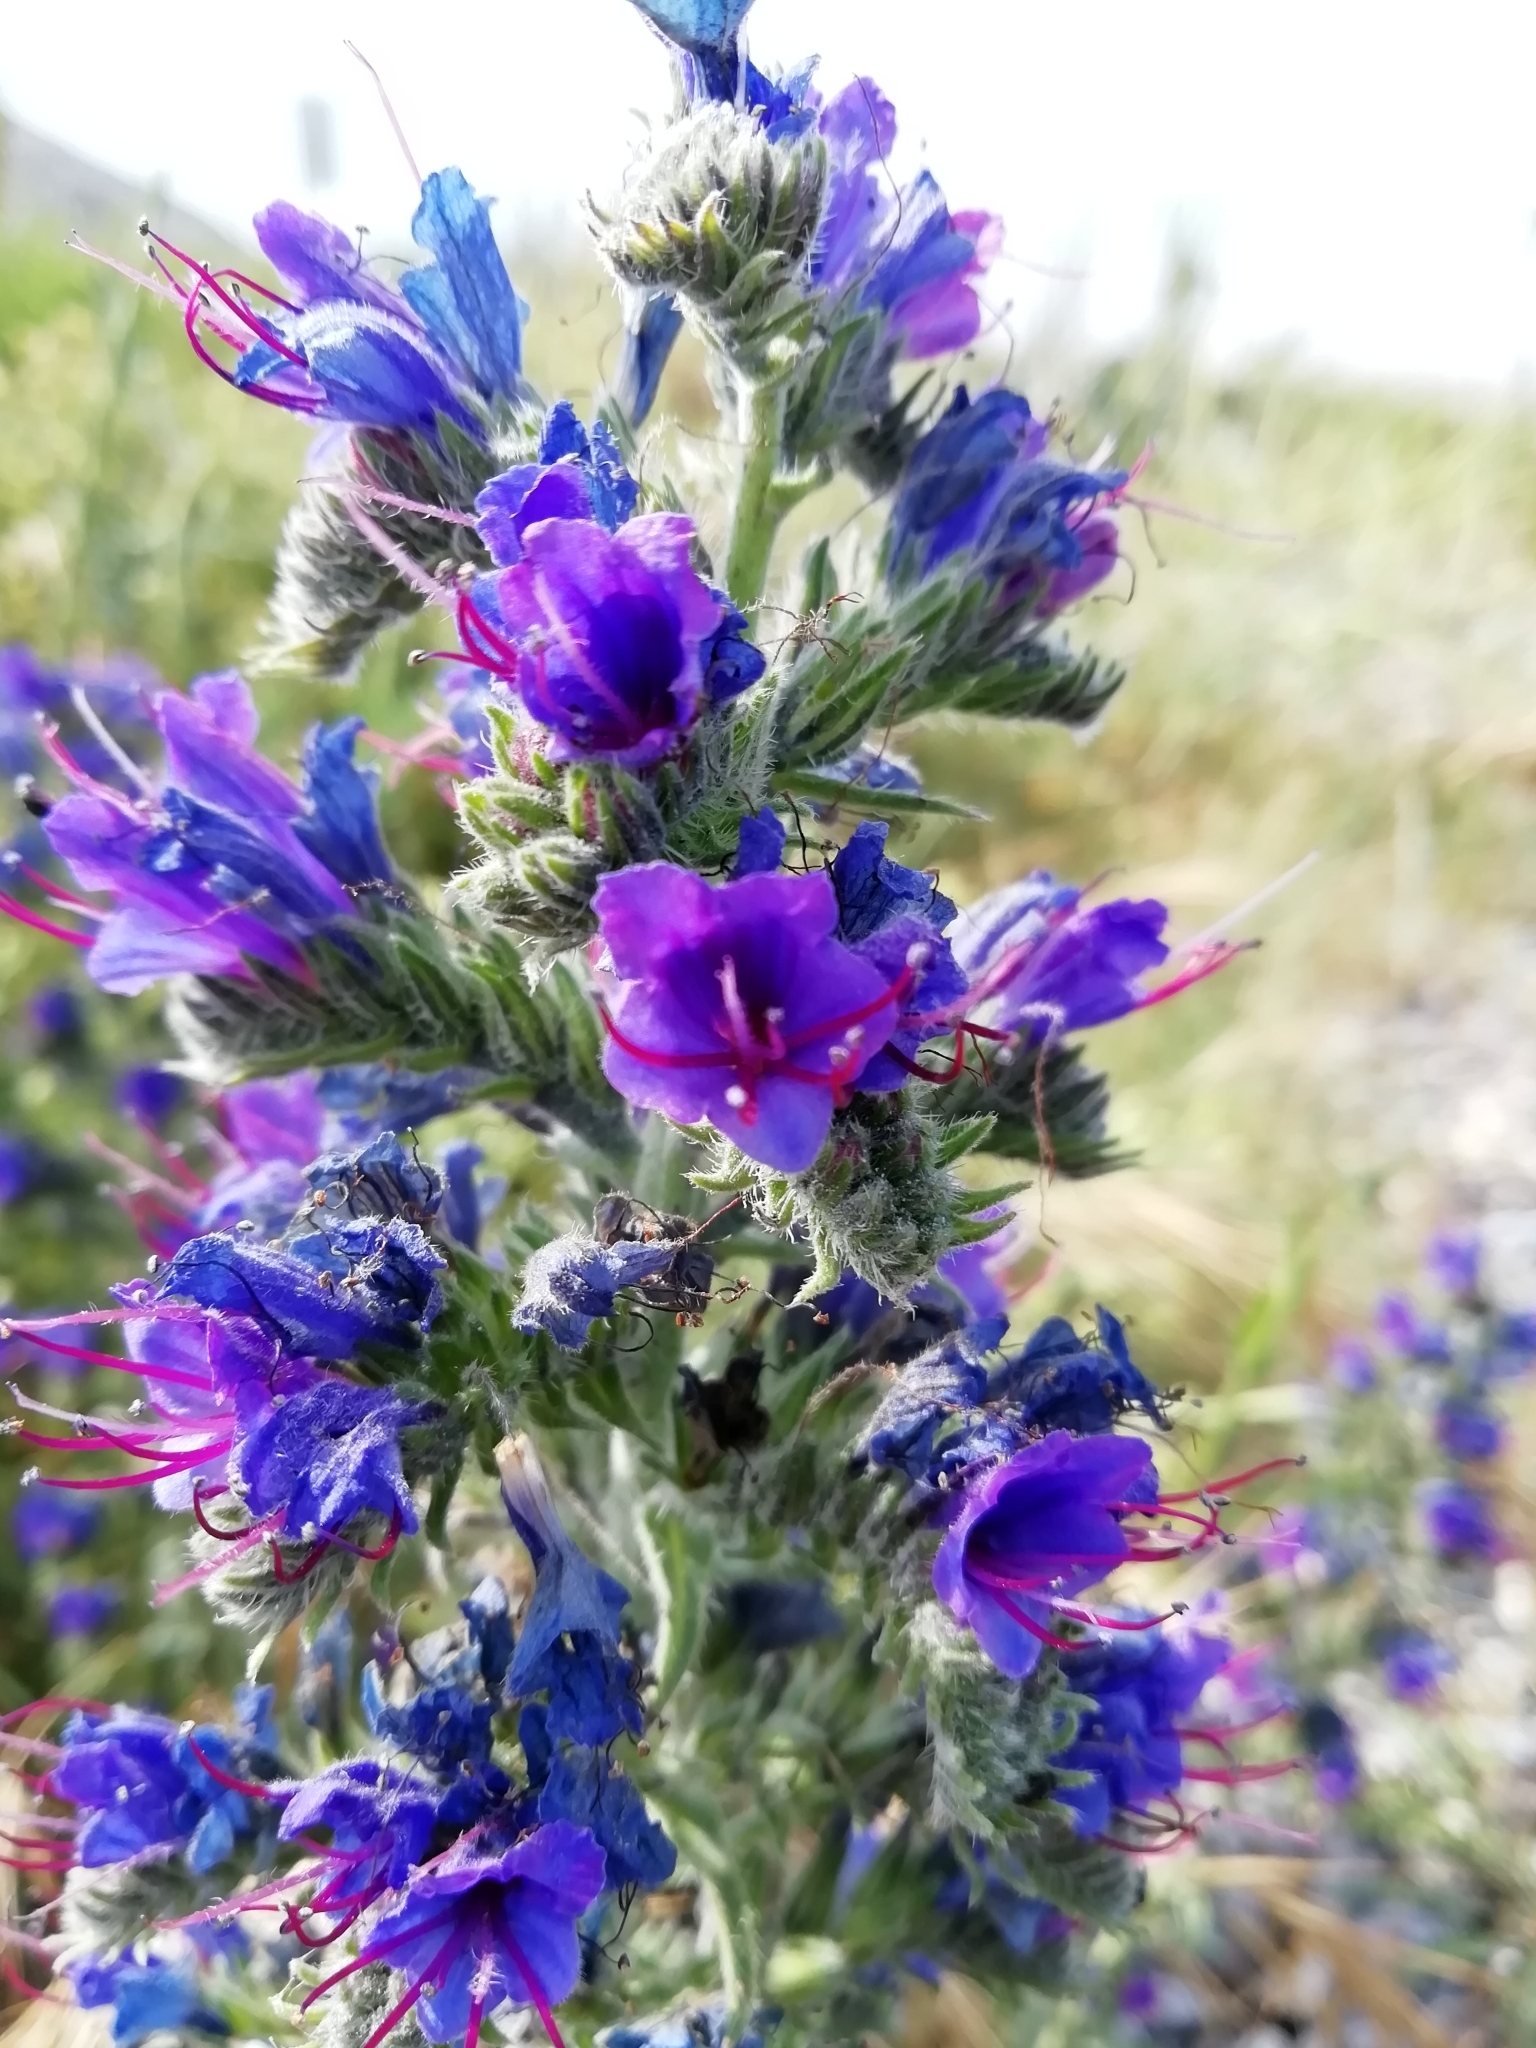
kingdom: Plantae
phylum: Tracheophyta
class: Magnoliopsida
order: Boraginales
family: Boraginaceae
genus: Echium
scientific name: Echium vulgare
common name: Common viper's bugloss
